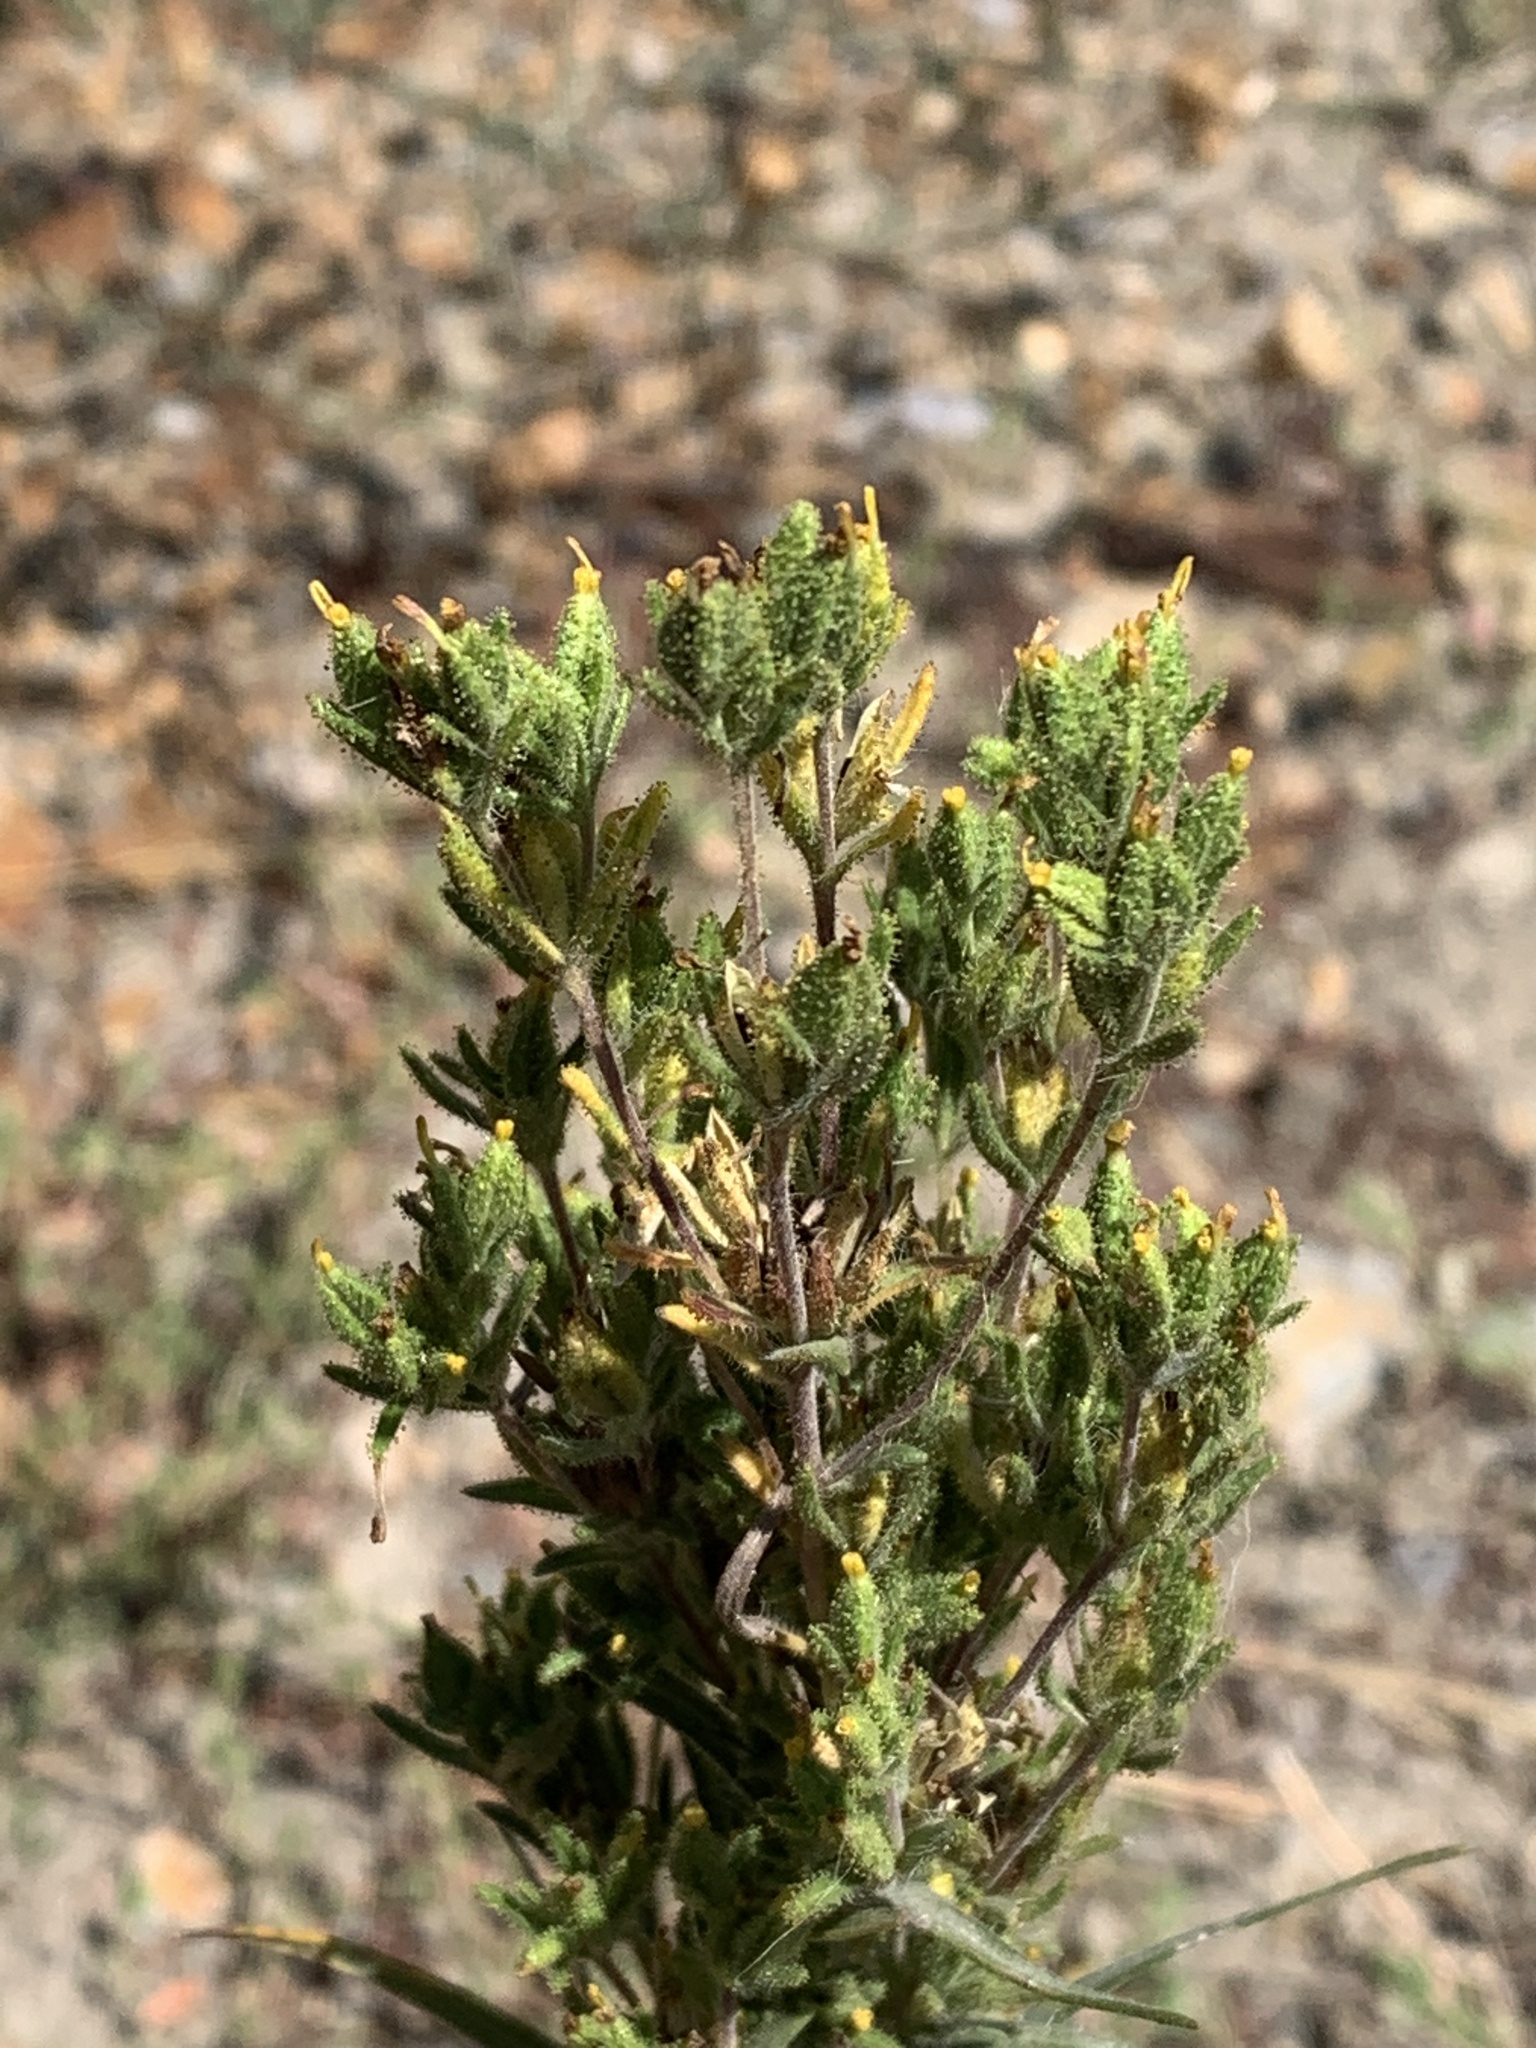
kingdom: Plantae
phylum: Tracheophyta
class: Magnoliopsida
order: Asterales
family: Asteraceae
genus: Madia
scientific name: Madia glomerata
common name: Mountain tarweed
